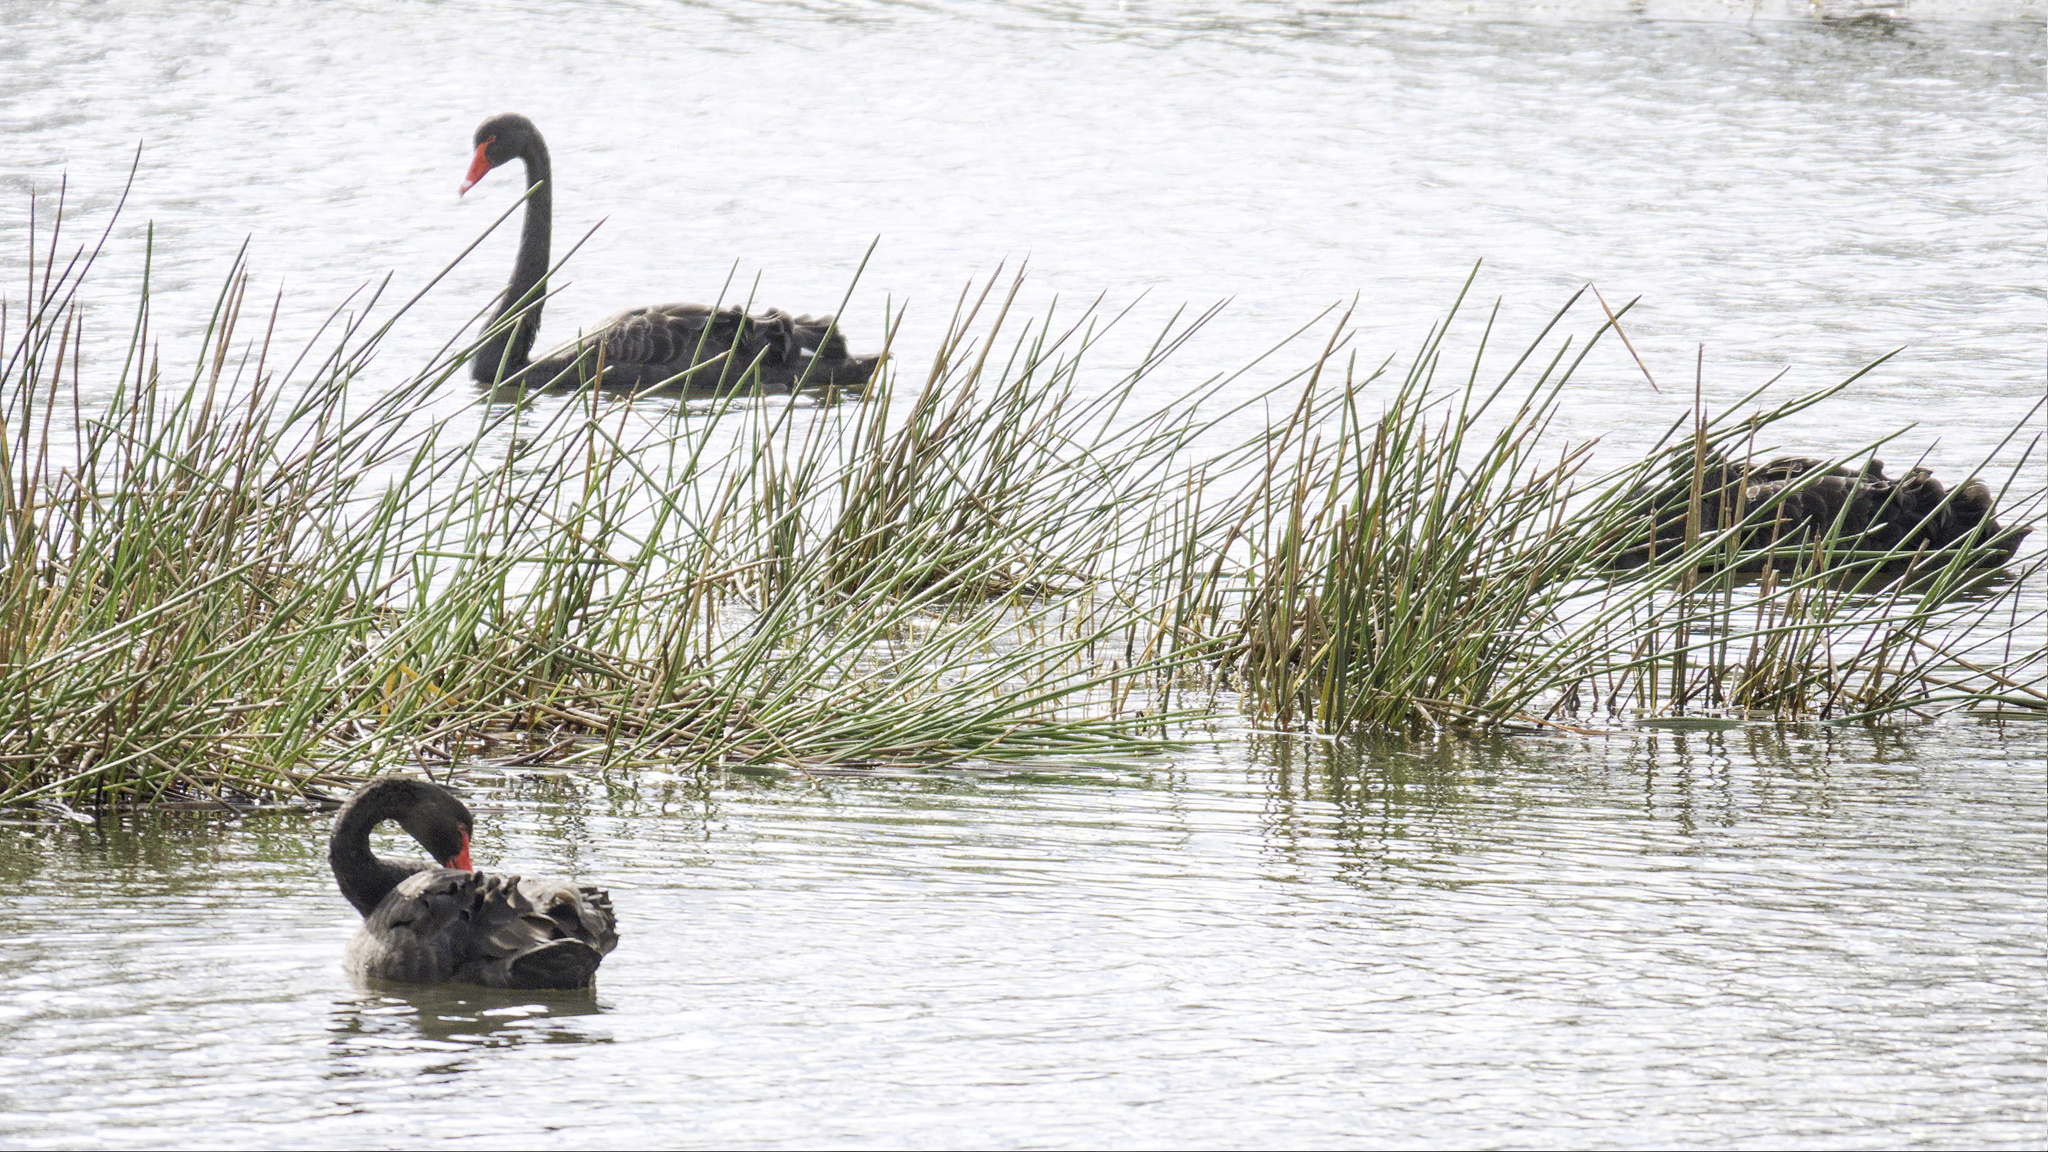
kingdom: Animalia
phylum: Chordata
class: Aves
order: Anseriformes
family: Anatidae
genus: Cygnus
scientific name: Cygnus atratus
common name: Black swan
